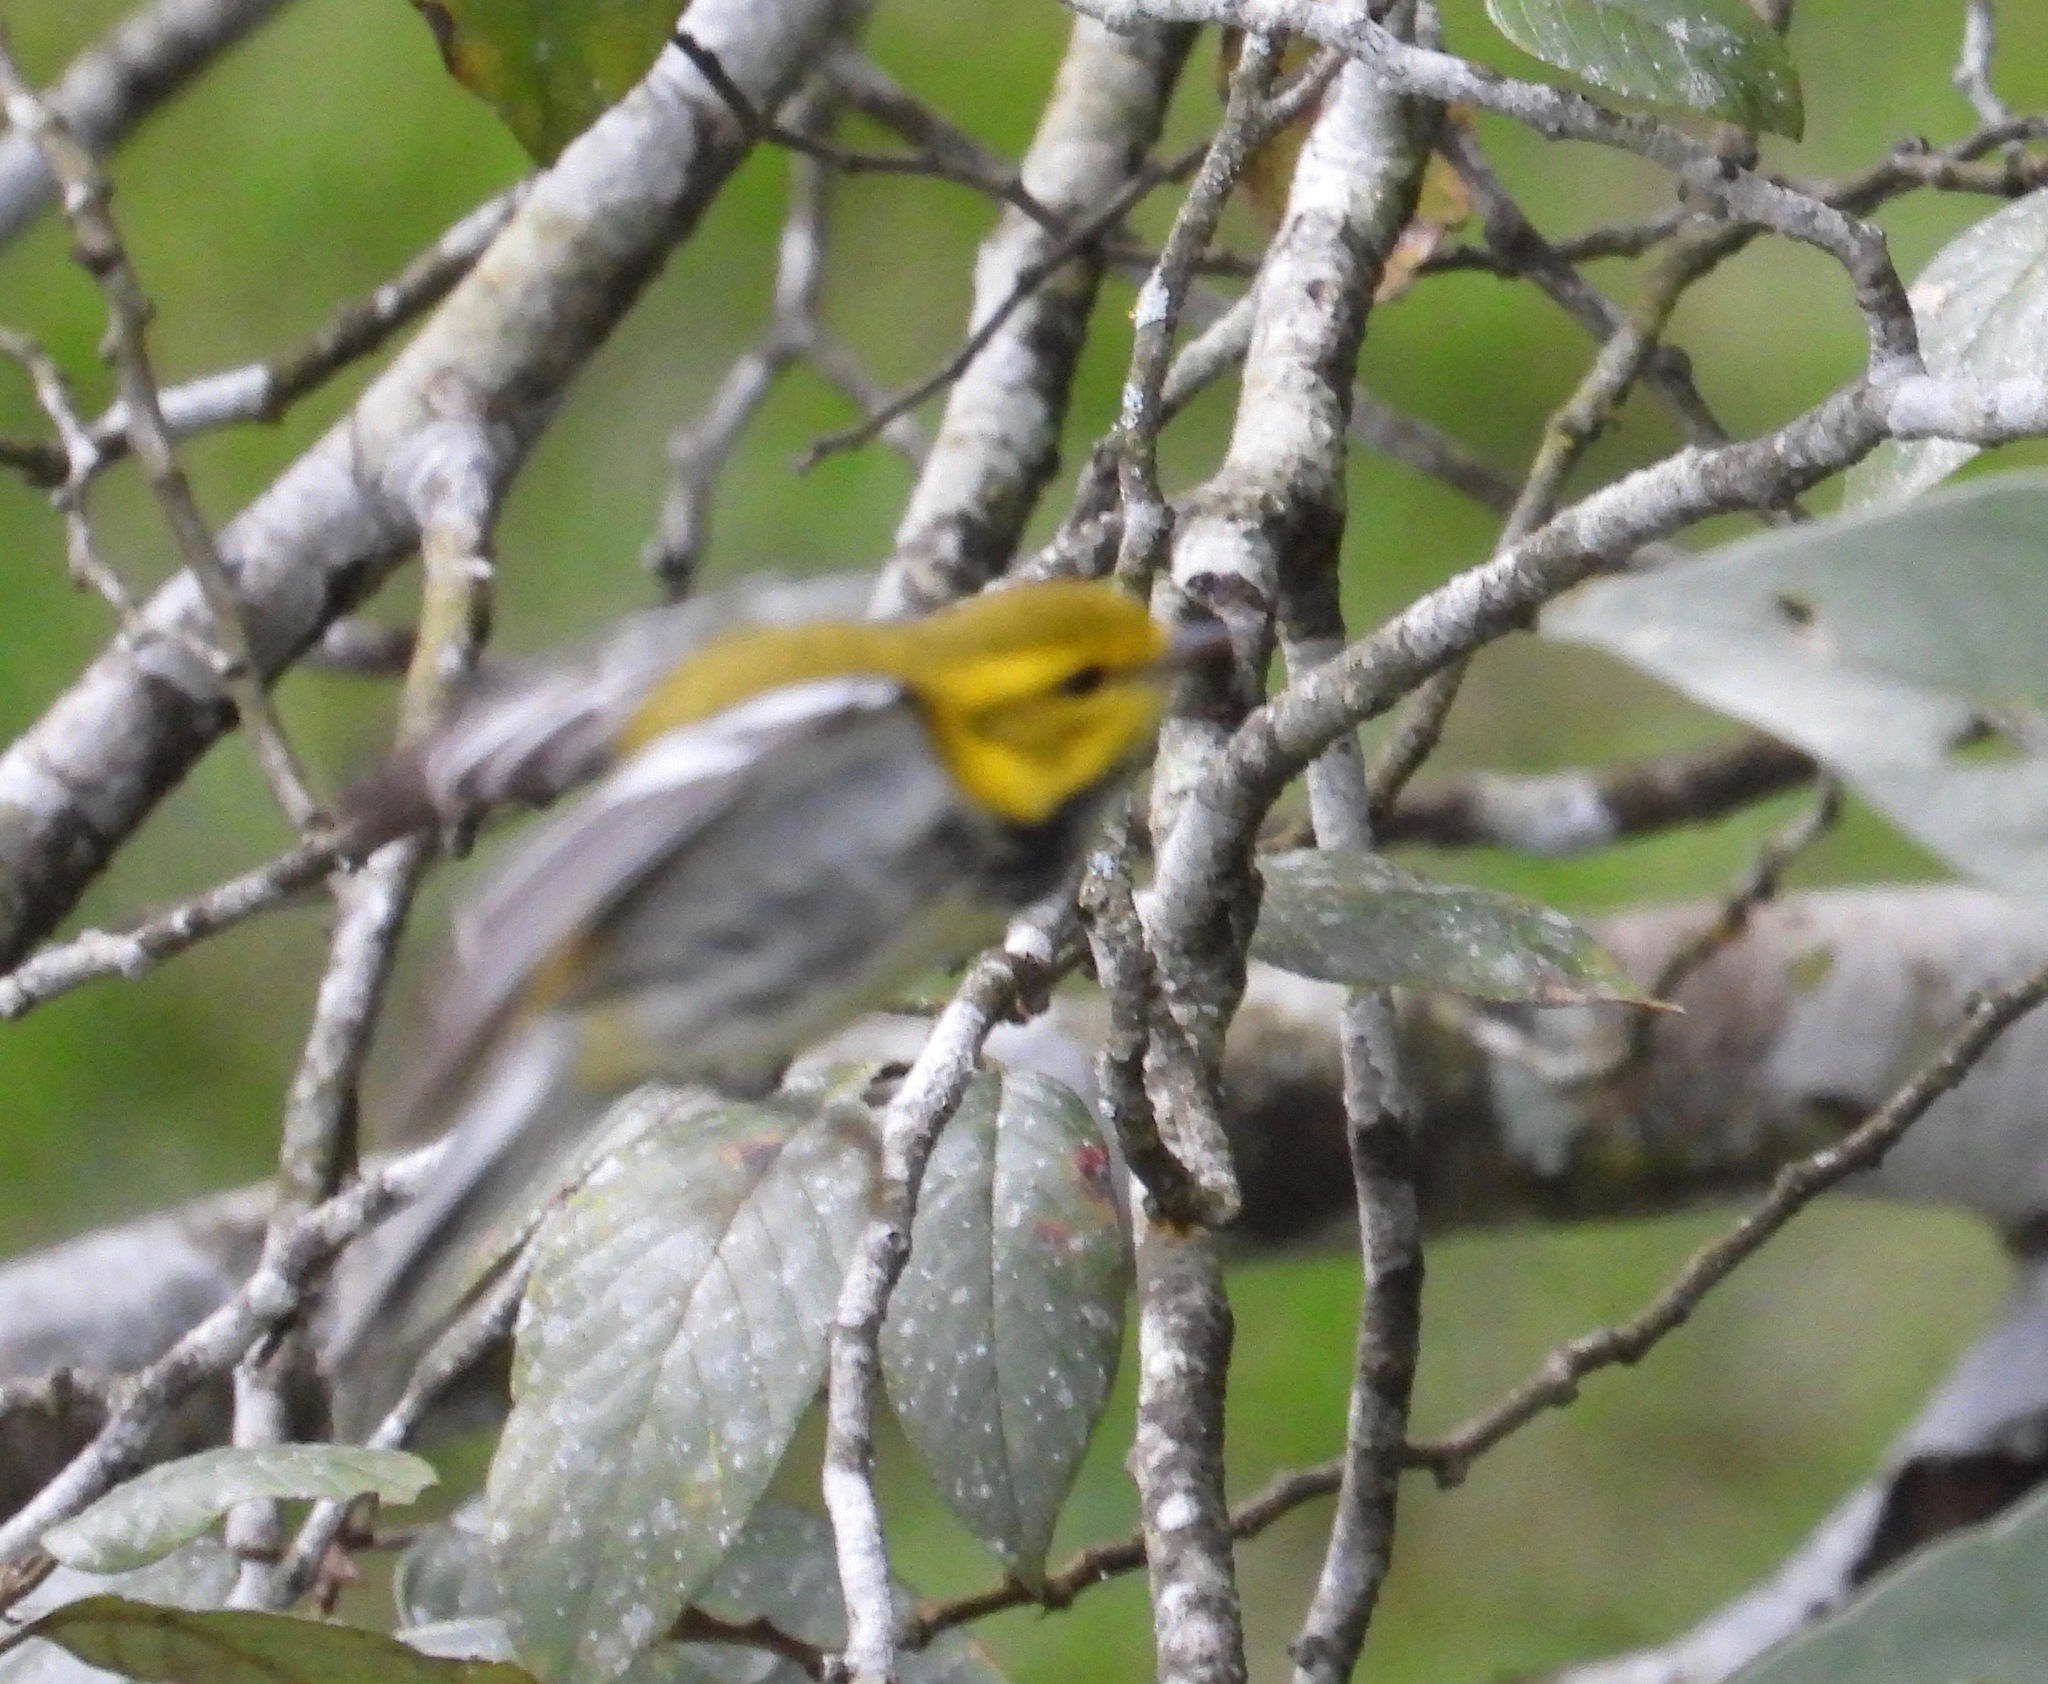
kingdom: Animalia
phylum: Chordata
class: Aves
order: Passeriformes
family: Parulidae
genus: Setophaga
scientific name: Setophaga virens
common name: Black-throated green warbler
